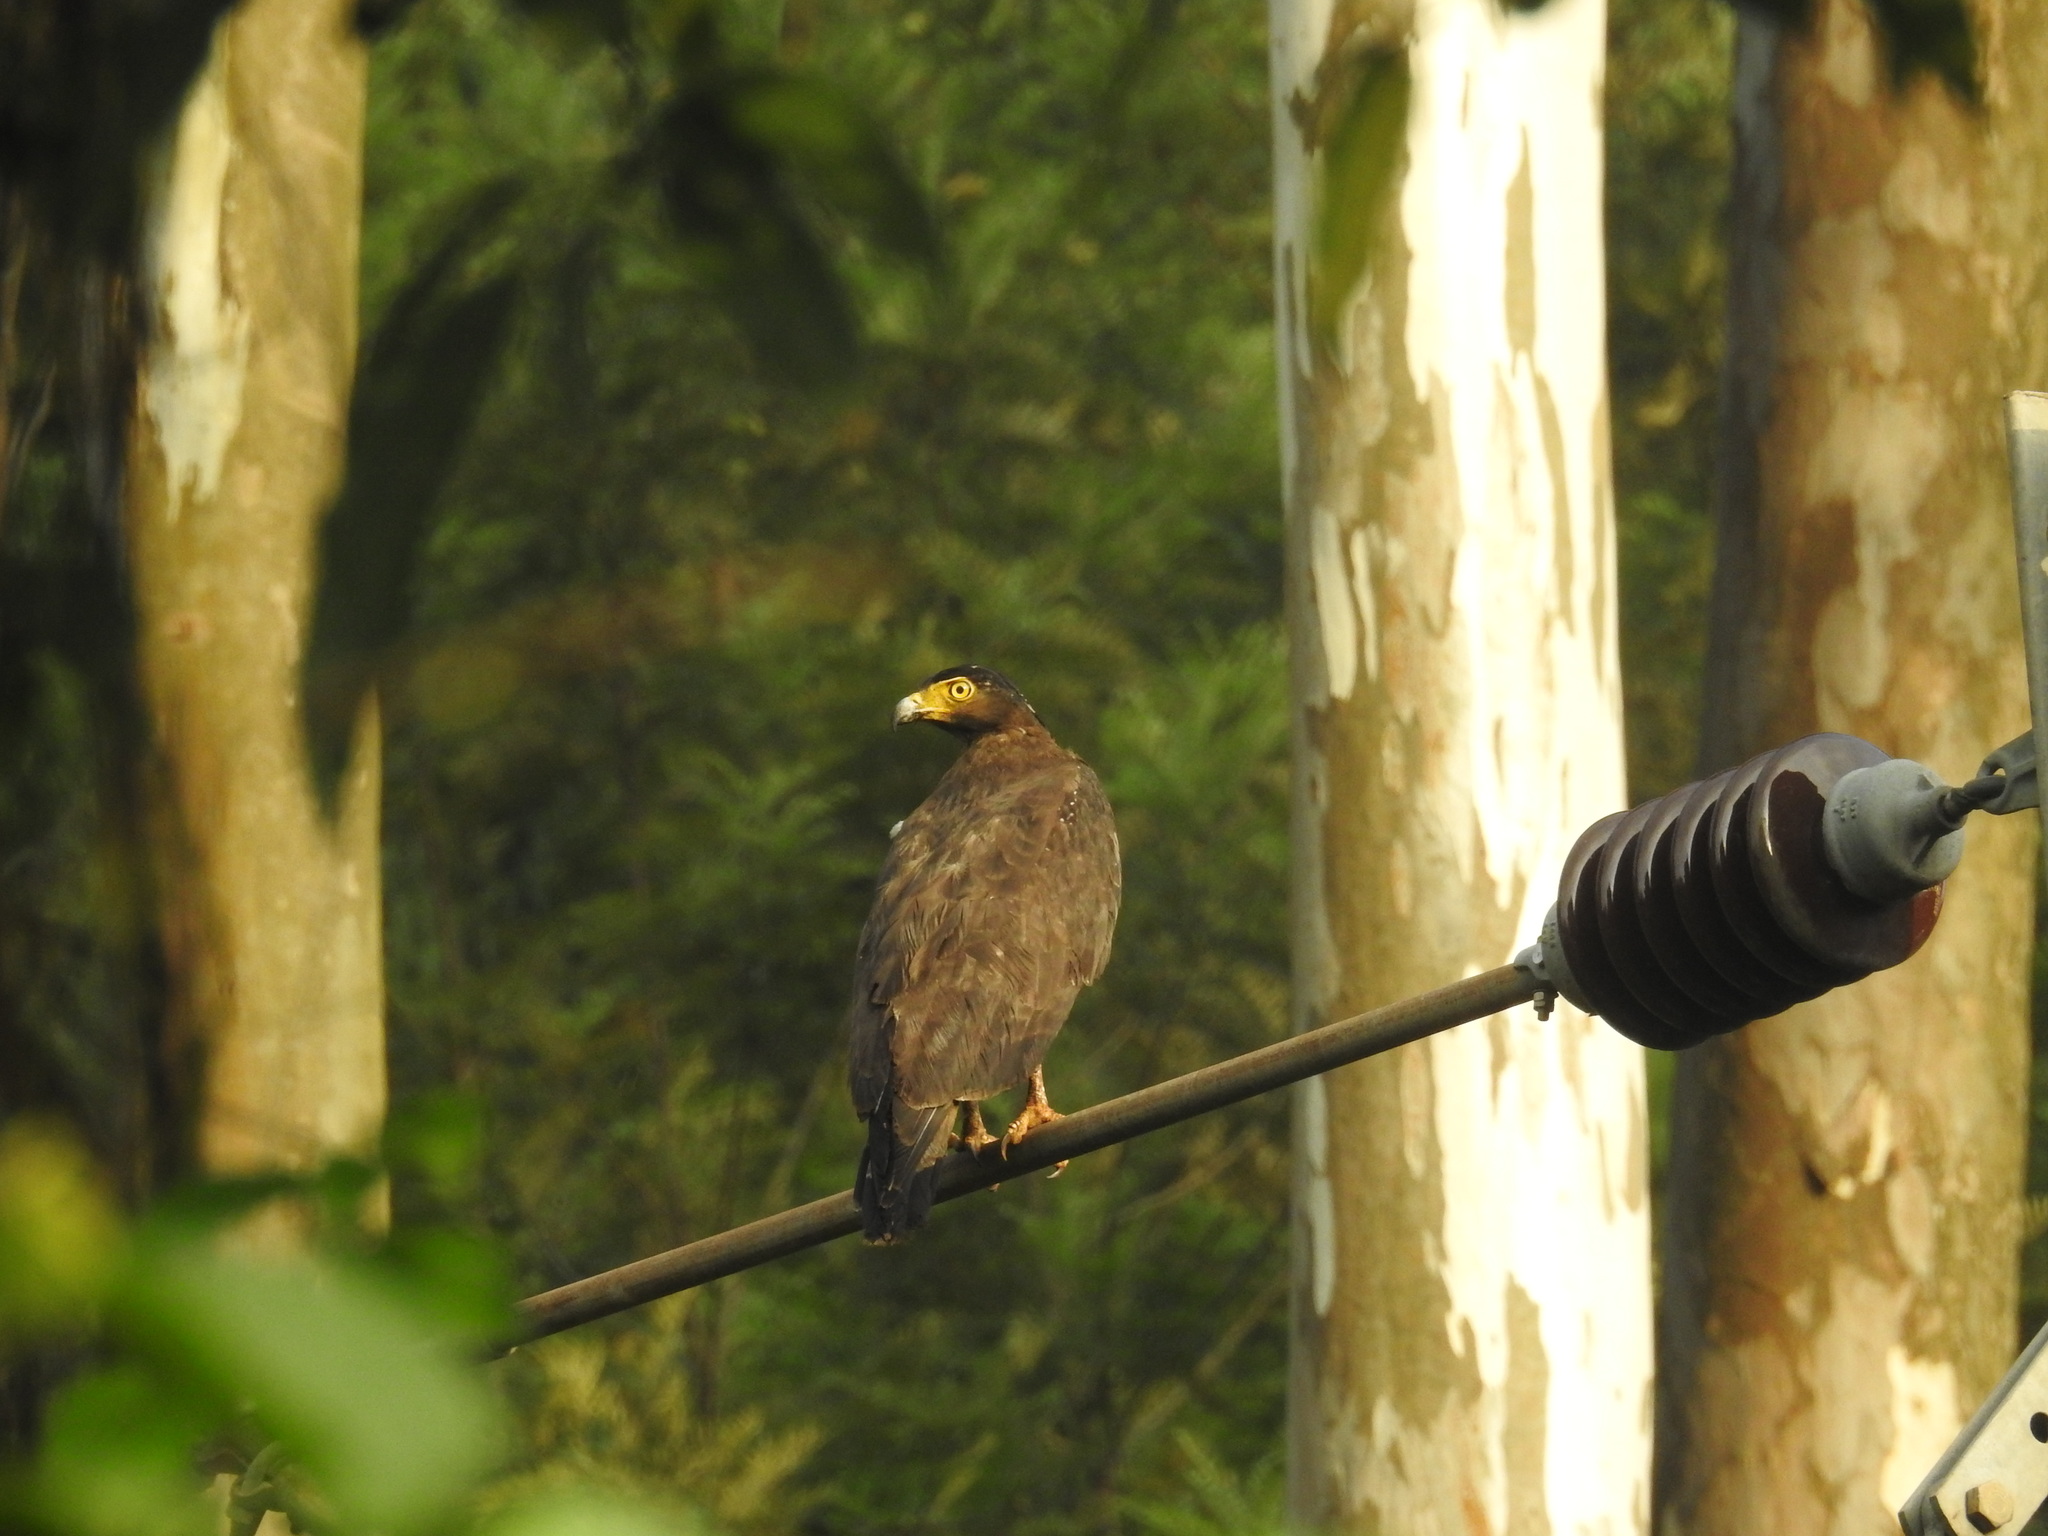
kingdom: Animalia
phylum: Chordata
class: Aves
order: Accipitriformes
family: Accipitridae
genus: Spilornis
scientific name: Spilornis cheela
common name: Crested serpent eagle
